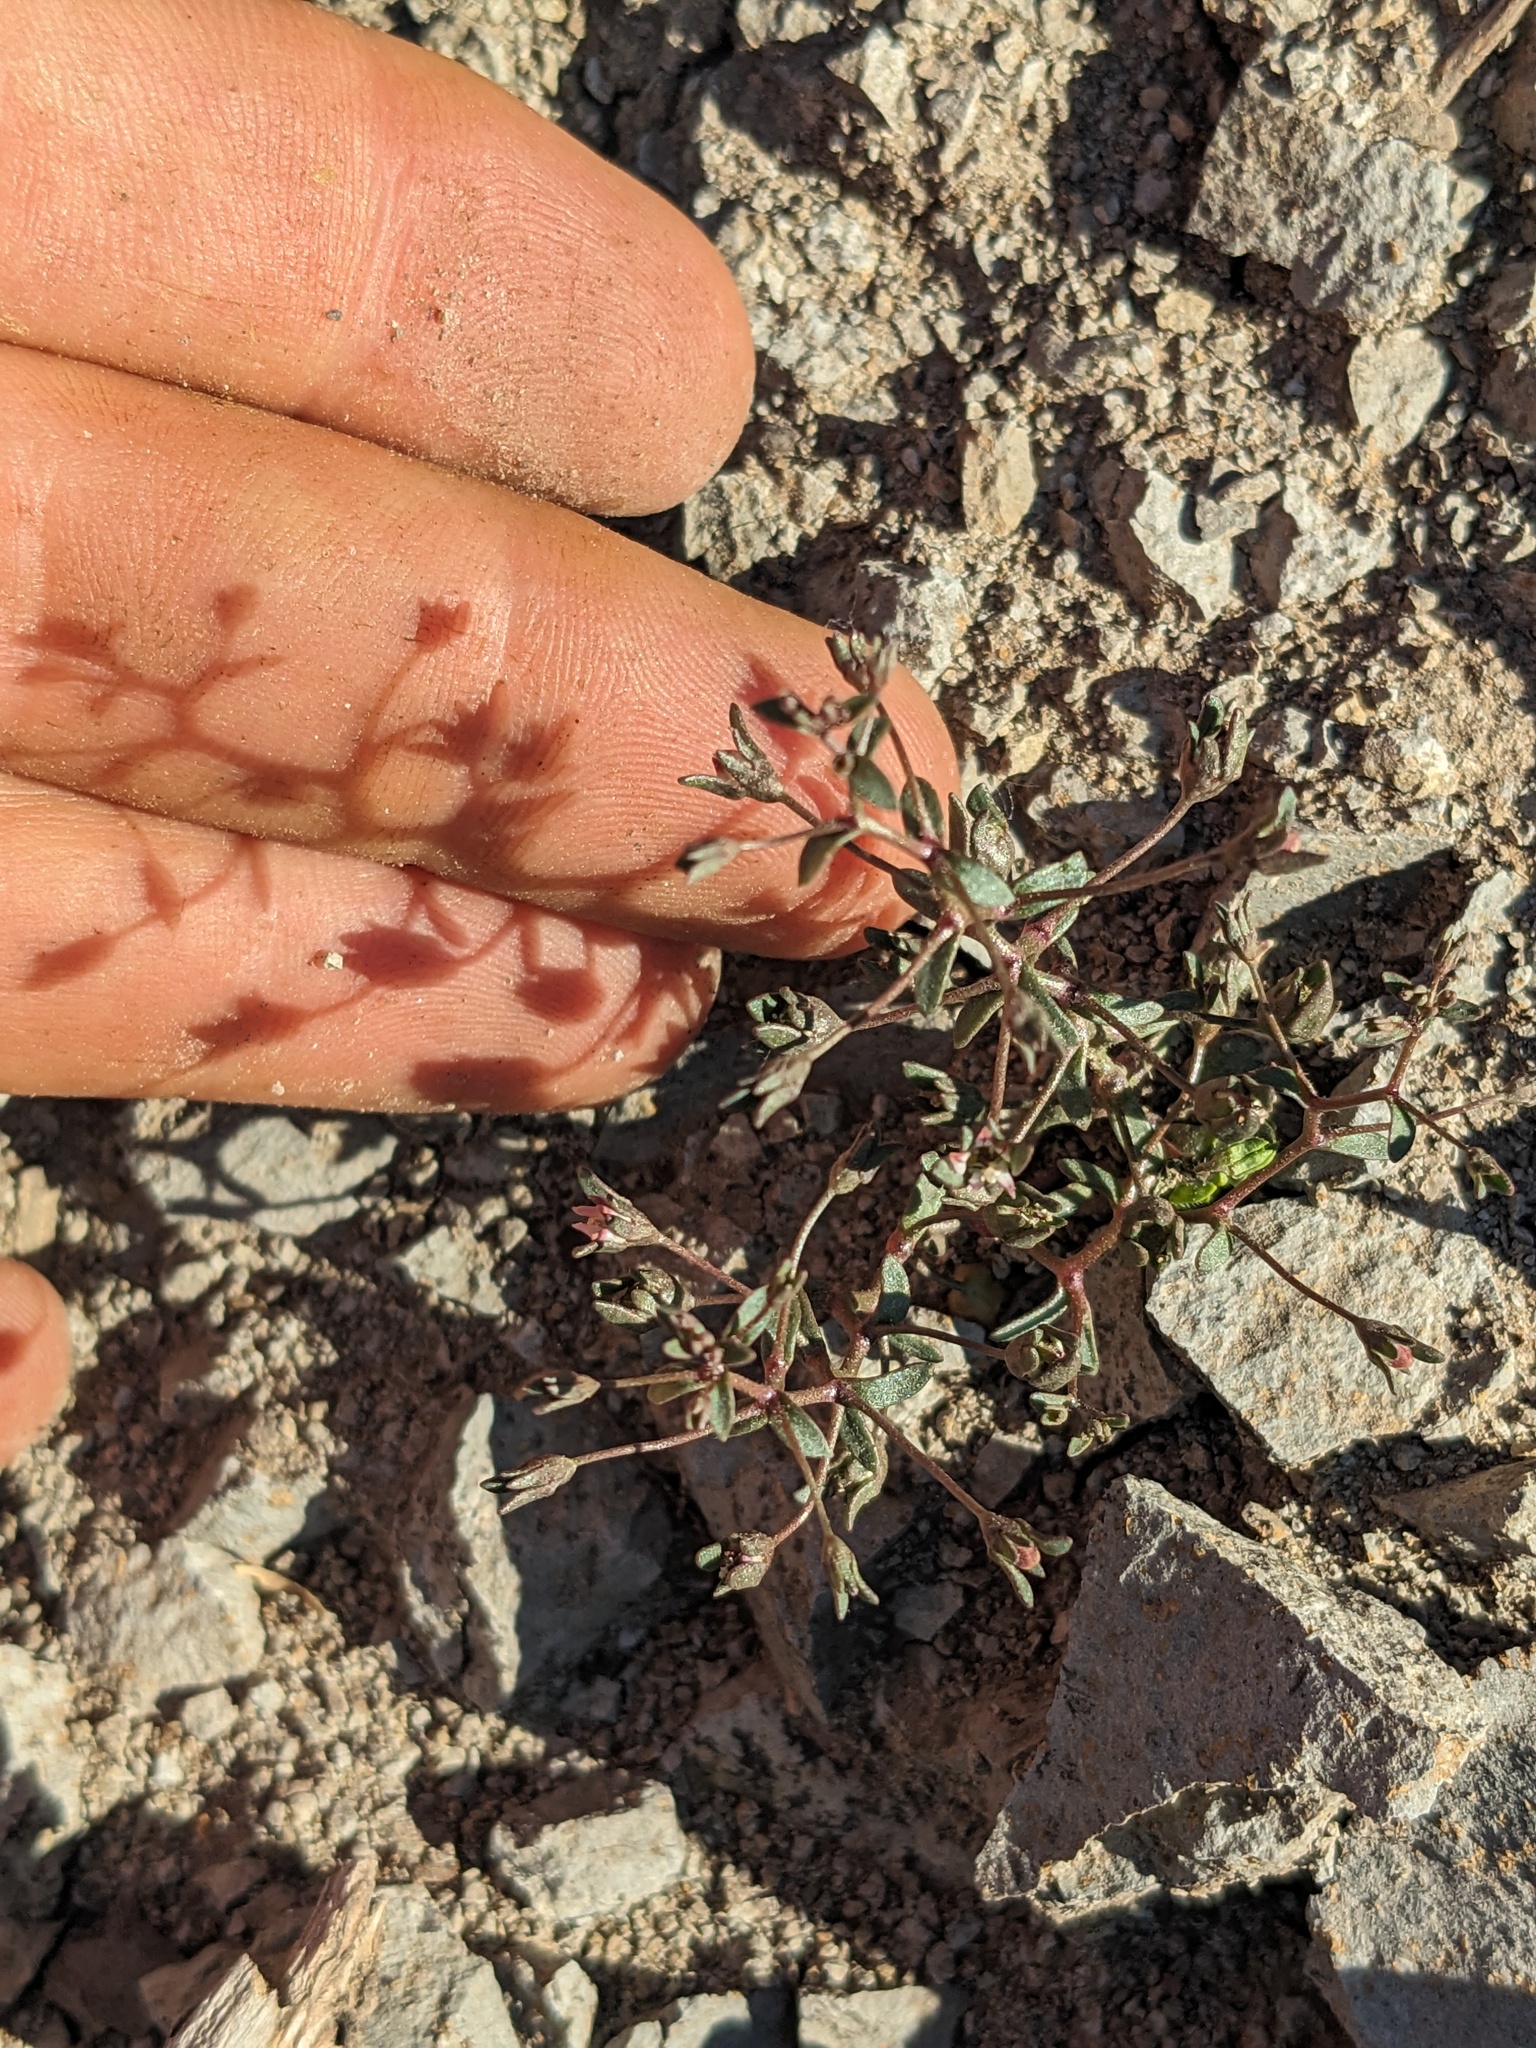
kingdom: Plantae
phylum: Tracheophyta
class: Magnoliopsida
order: Asterales
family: Campanulaceae
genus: Nemacladus
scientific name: Nemacladus rigidus
